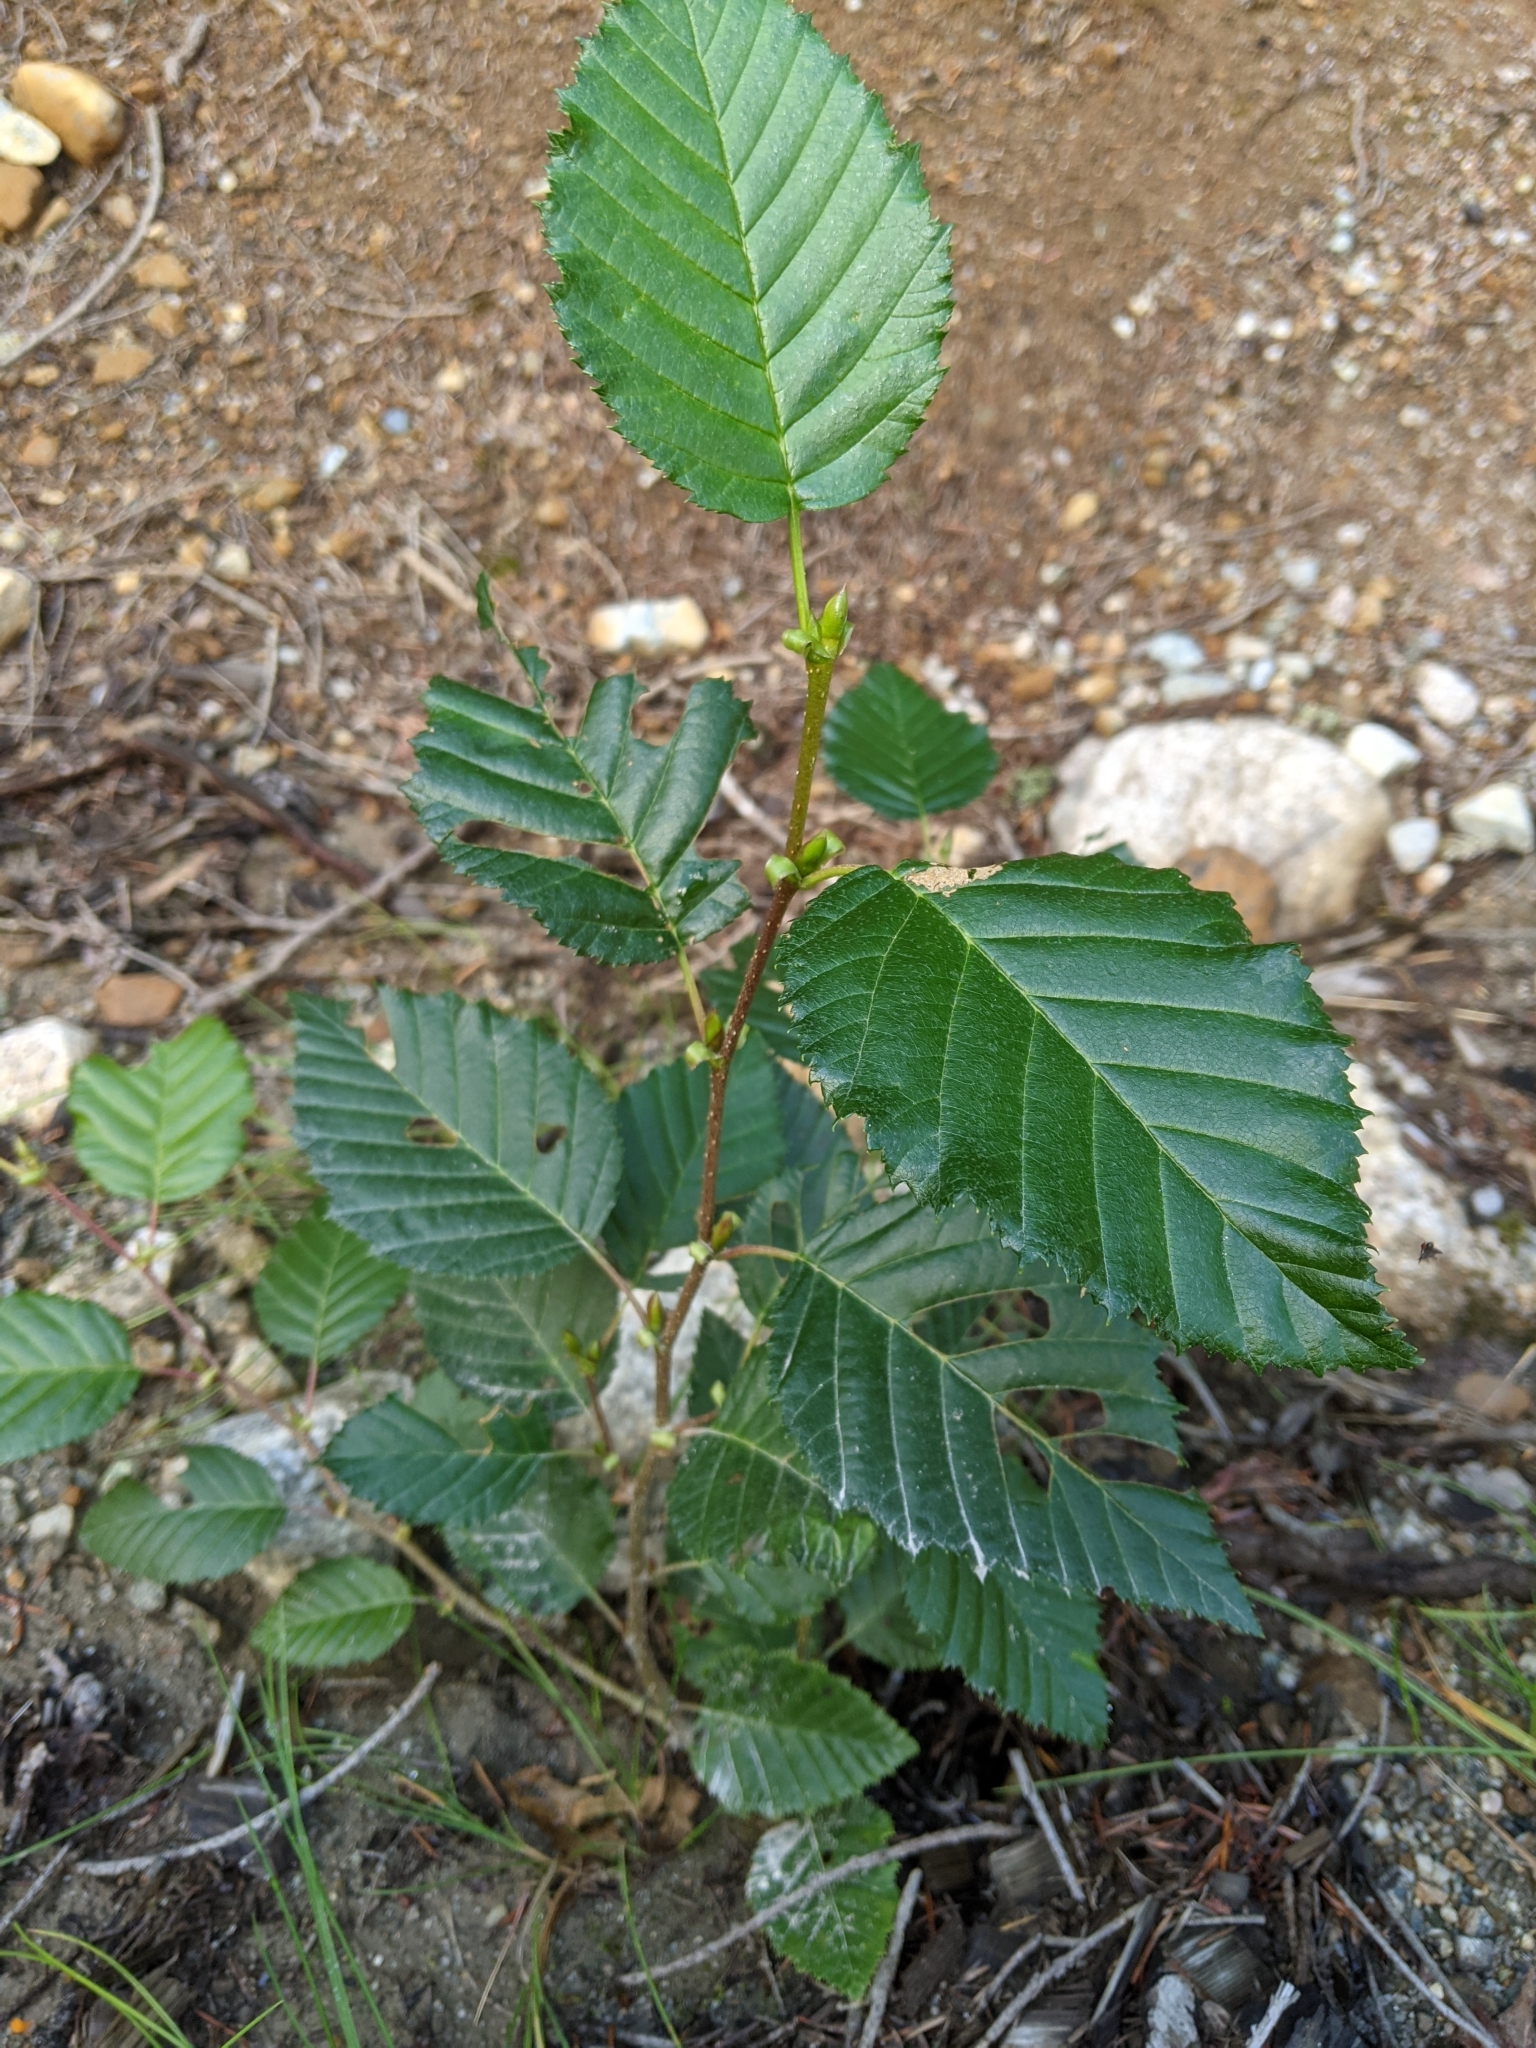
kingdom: Plantae
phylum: Tracheophyta
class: Magnoliopsida
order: Fagales
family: Betulaceae
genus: Alnus
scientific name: Alnus alnobetula
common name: Green alder
